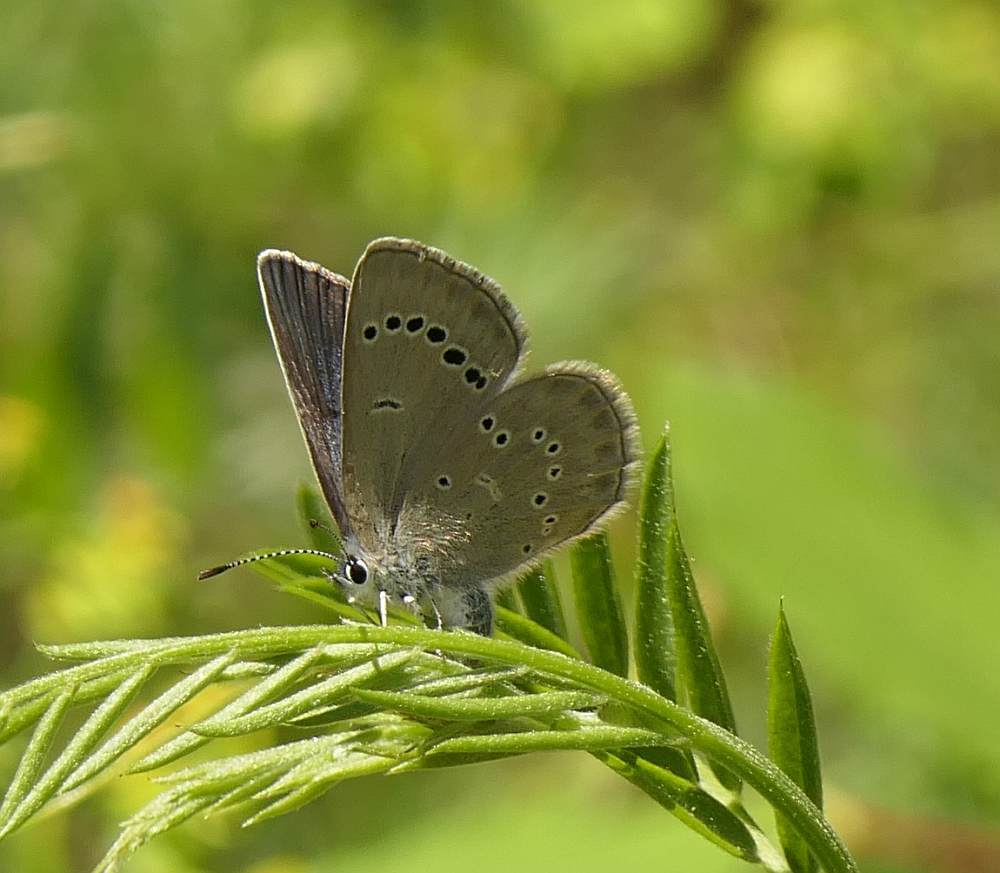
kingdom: Animalia
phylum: Arthropoda
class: Insecta
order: Lepidoptera
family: Lycaenidae
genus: Glaucopsyche
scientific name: Glaucopsyche lygdamus
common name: Silvery blue
